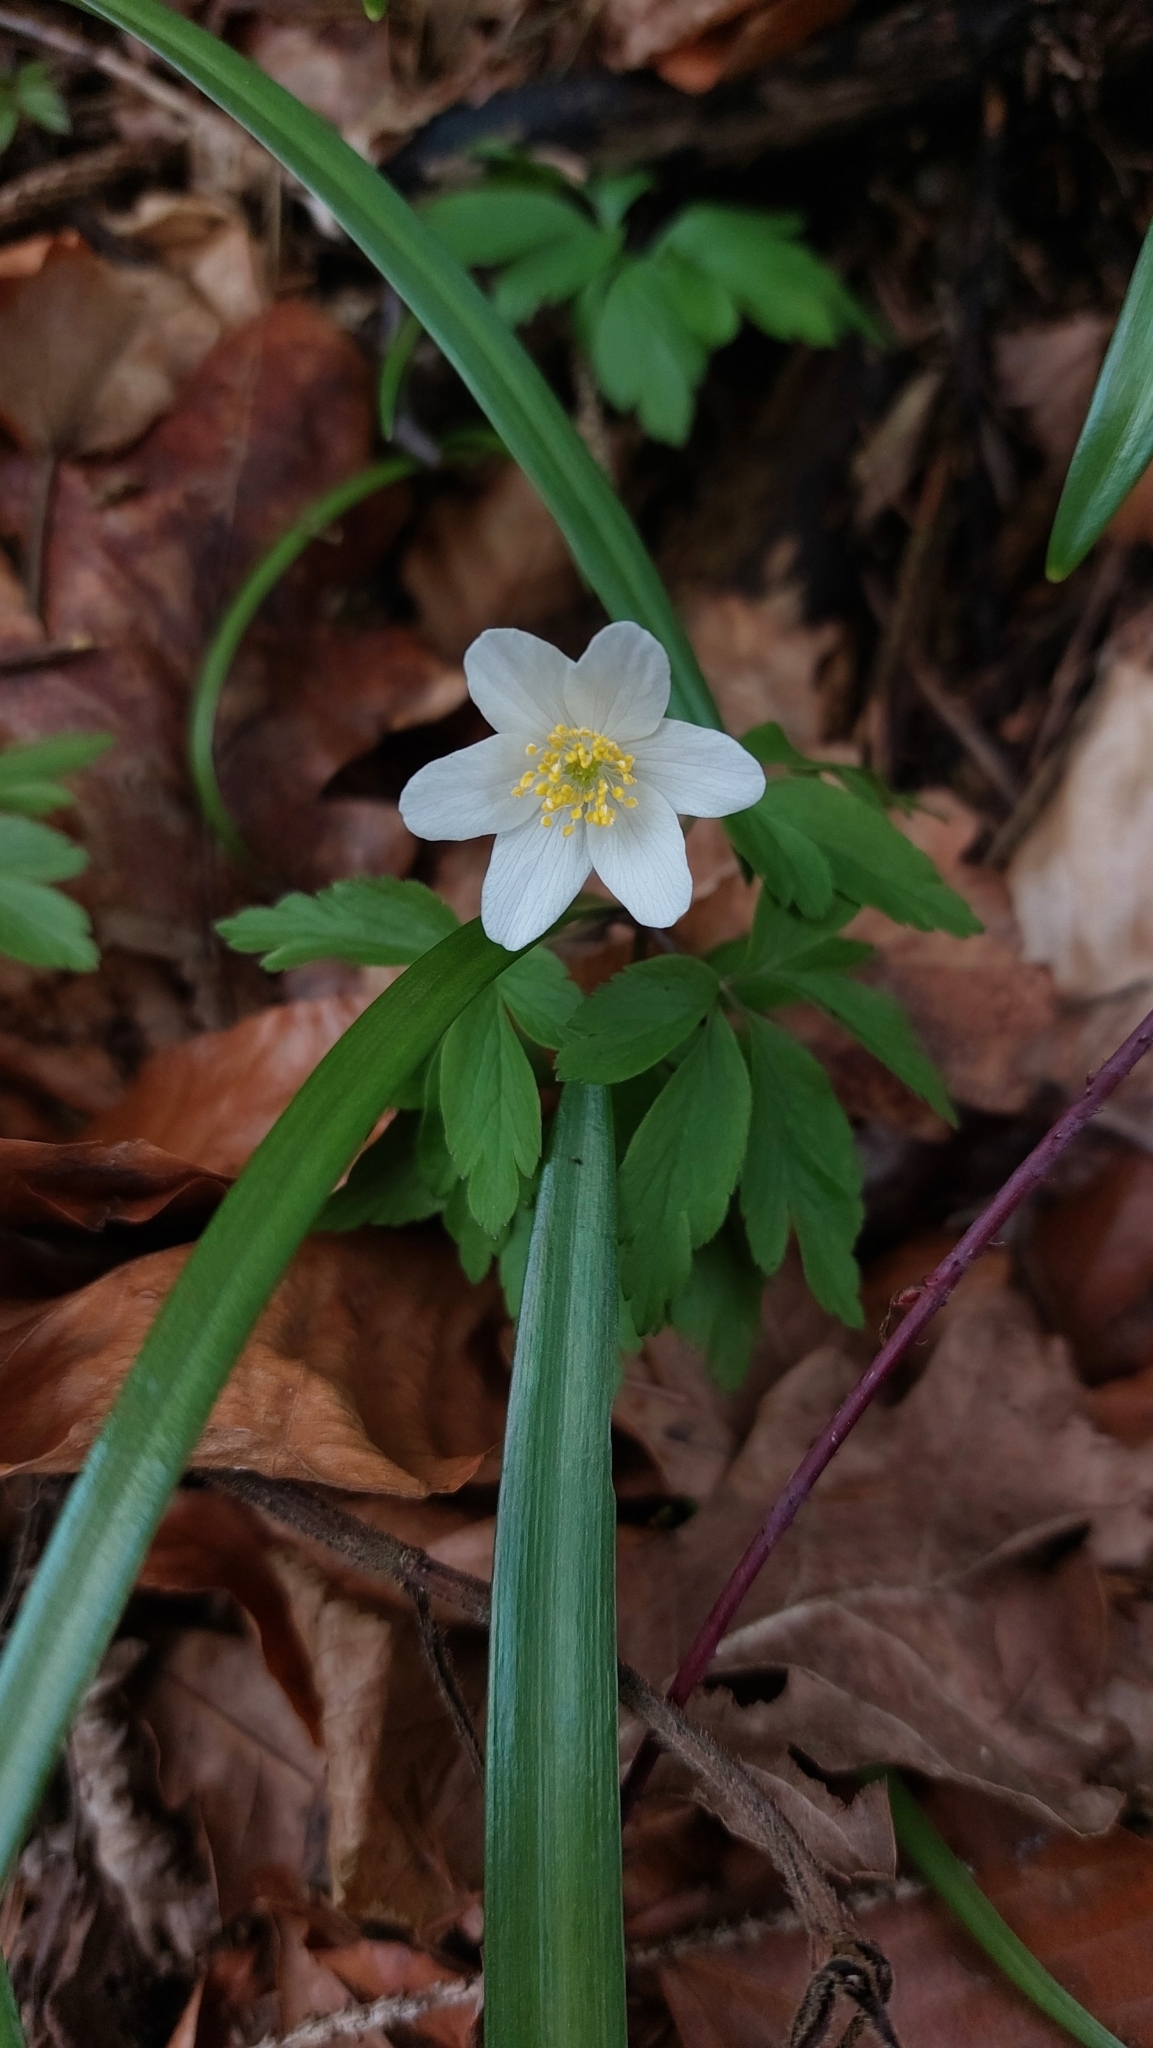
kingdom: Plantae
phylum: Tracheophyta
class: Magnoliopsida
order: Ranunculales
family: Ranunculaceae
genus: Anemone
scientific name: Anemone nemorosa
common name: Wood anemone
